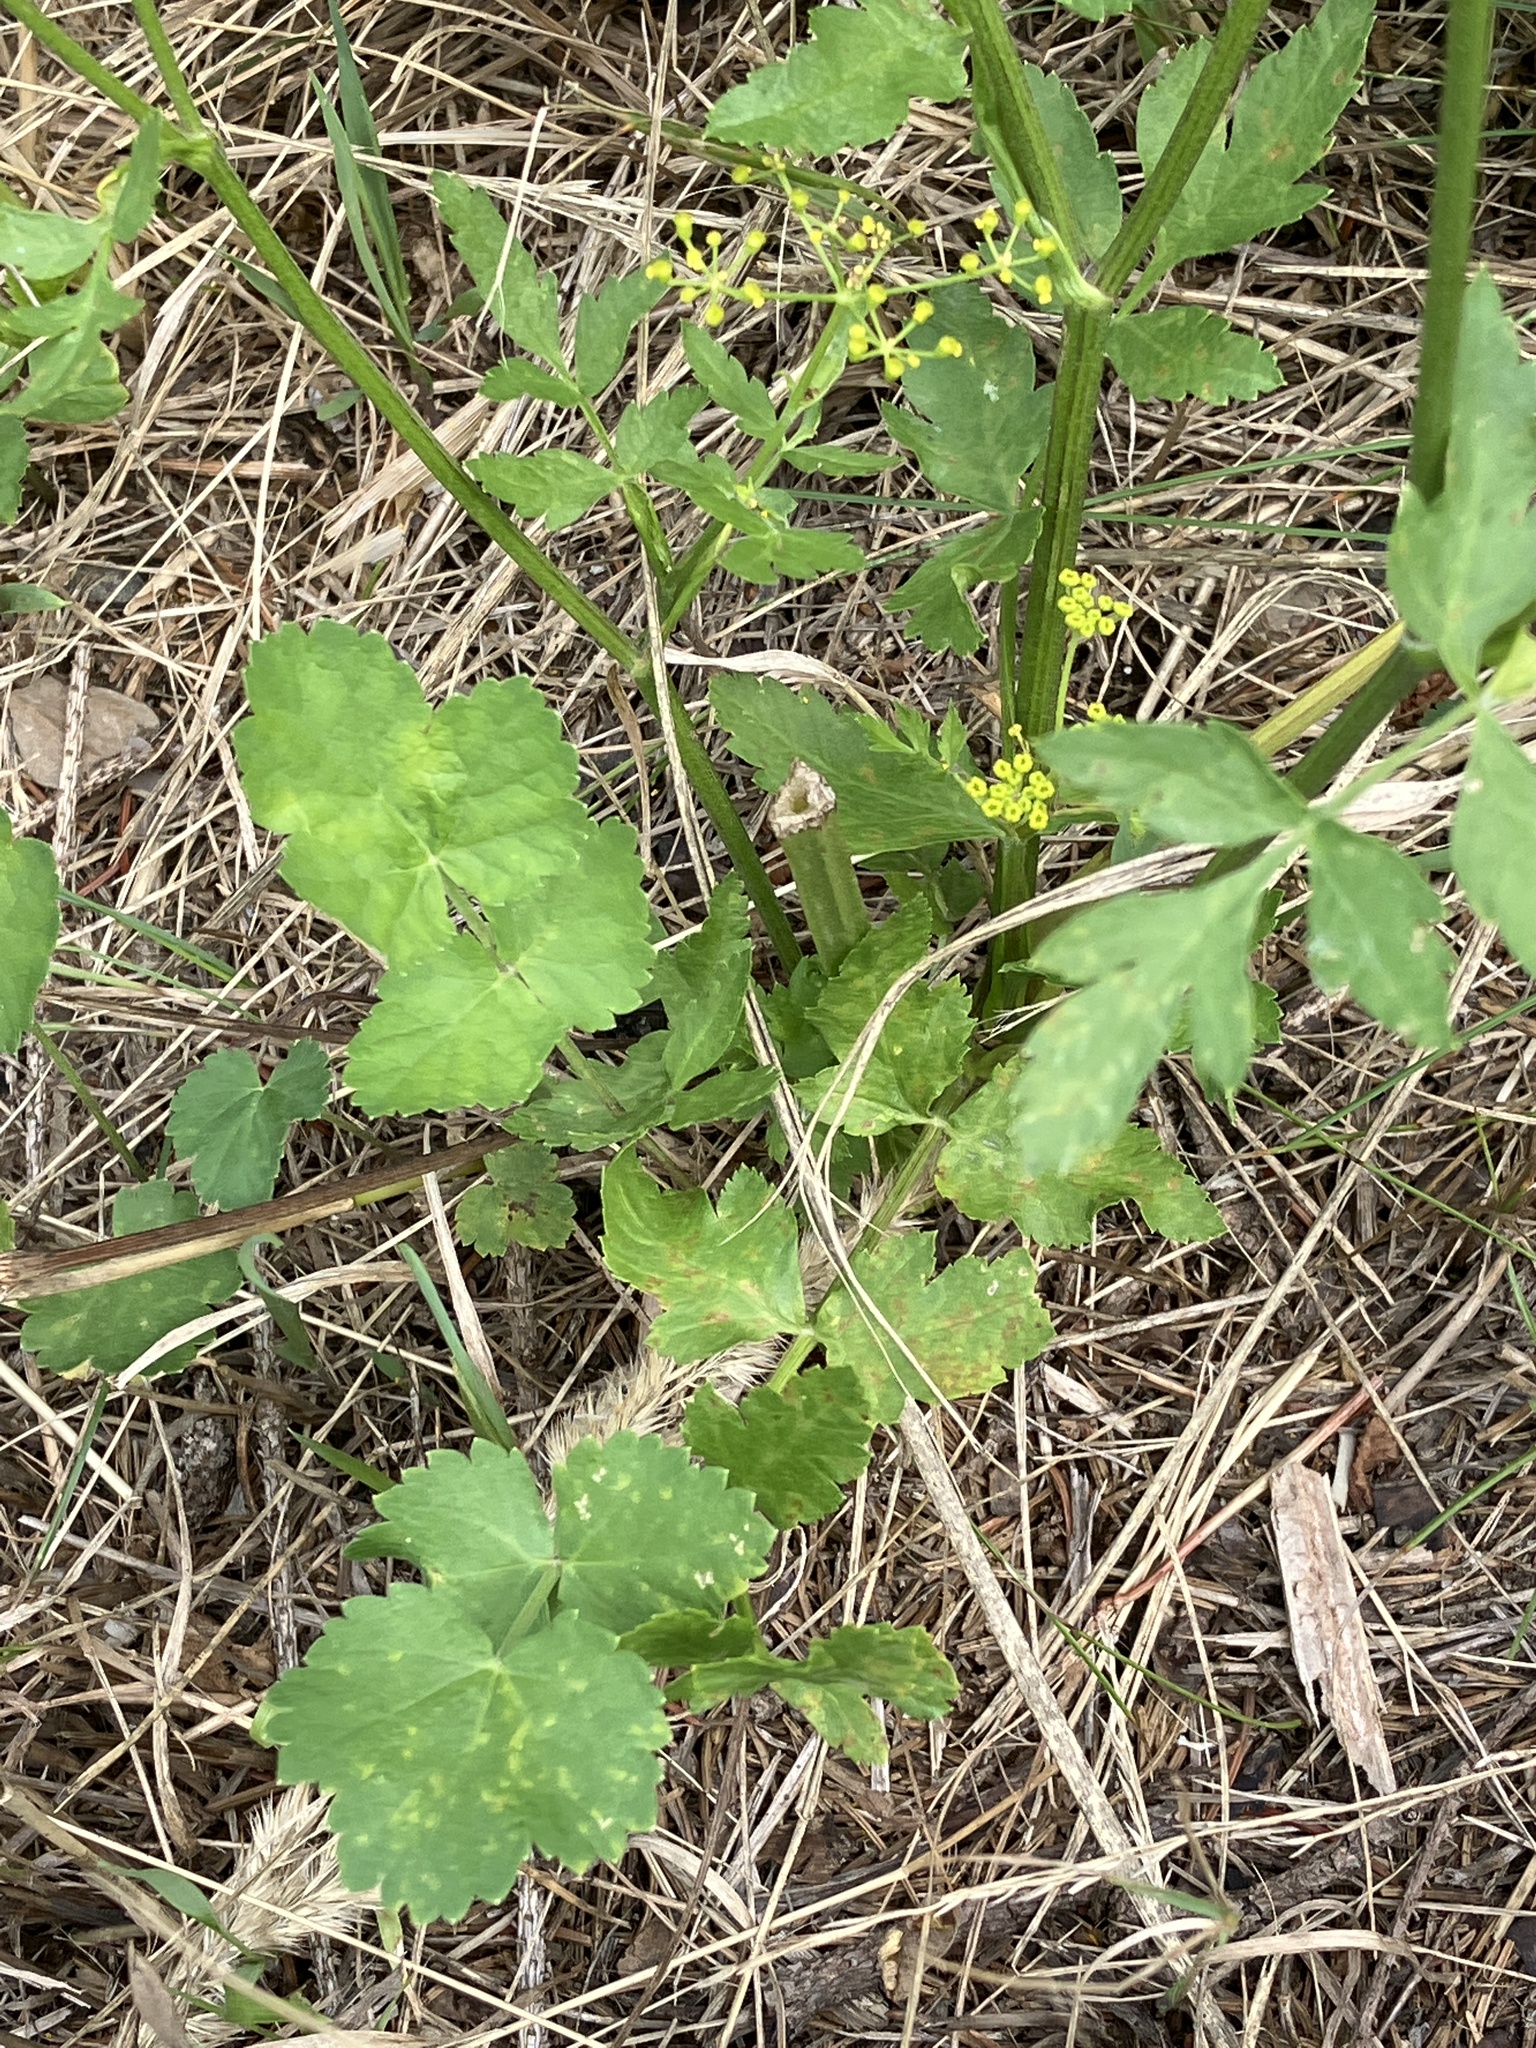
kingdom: Plantae
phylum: Tracheophyta
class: Magnoliopsida
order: Apiales
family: Apiaceae
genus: Pastinaca
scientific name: Pastinaca sativa
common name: Wild parsnip
